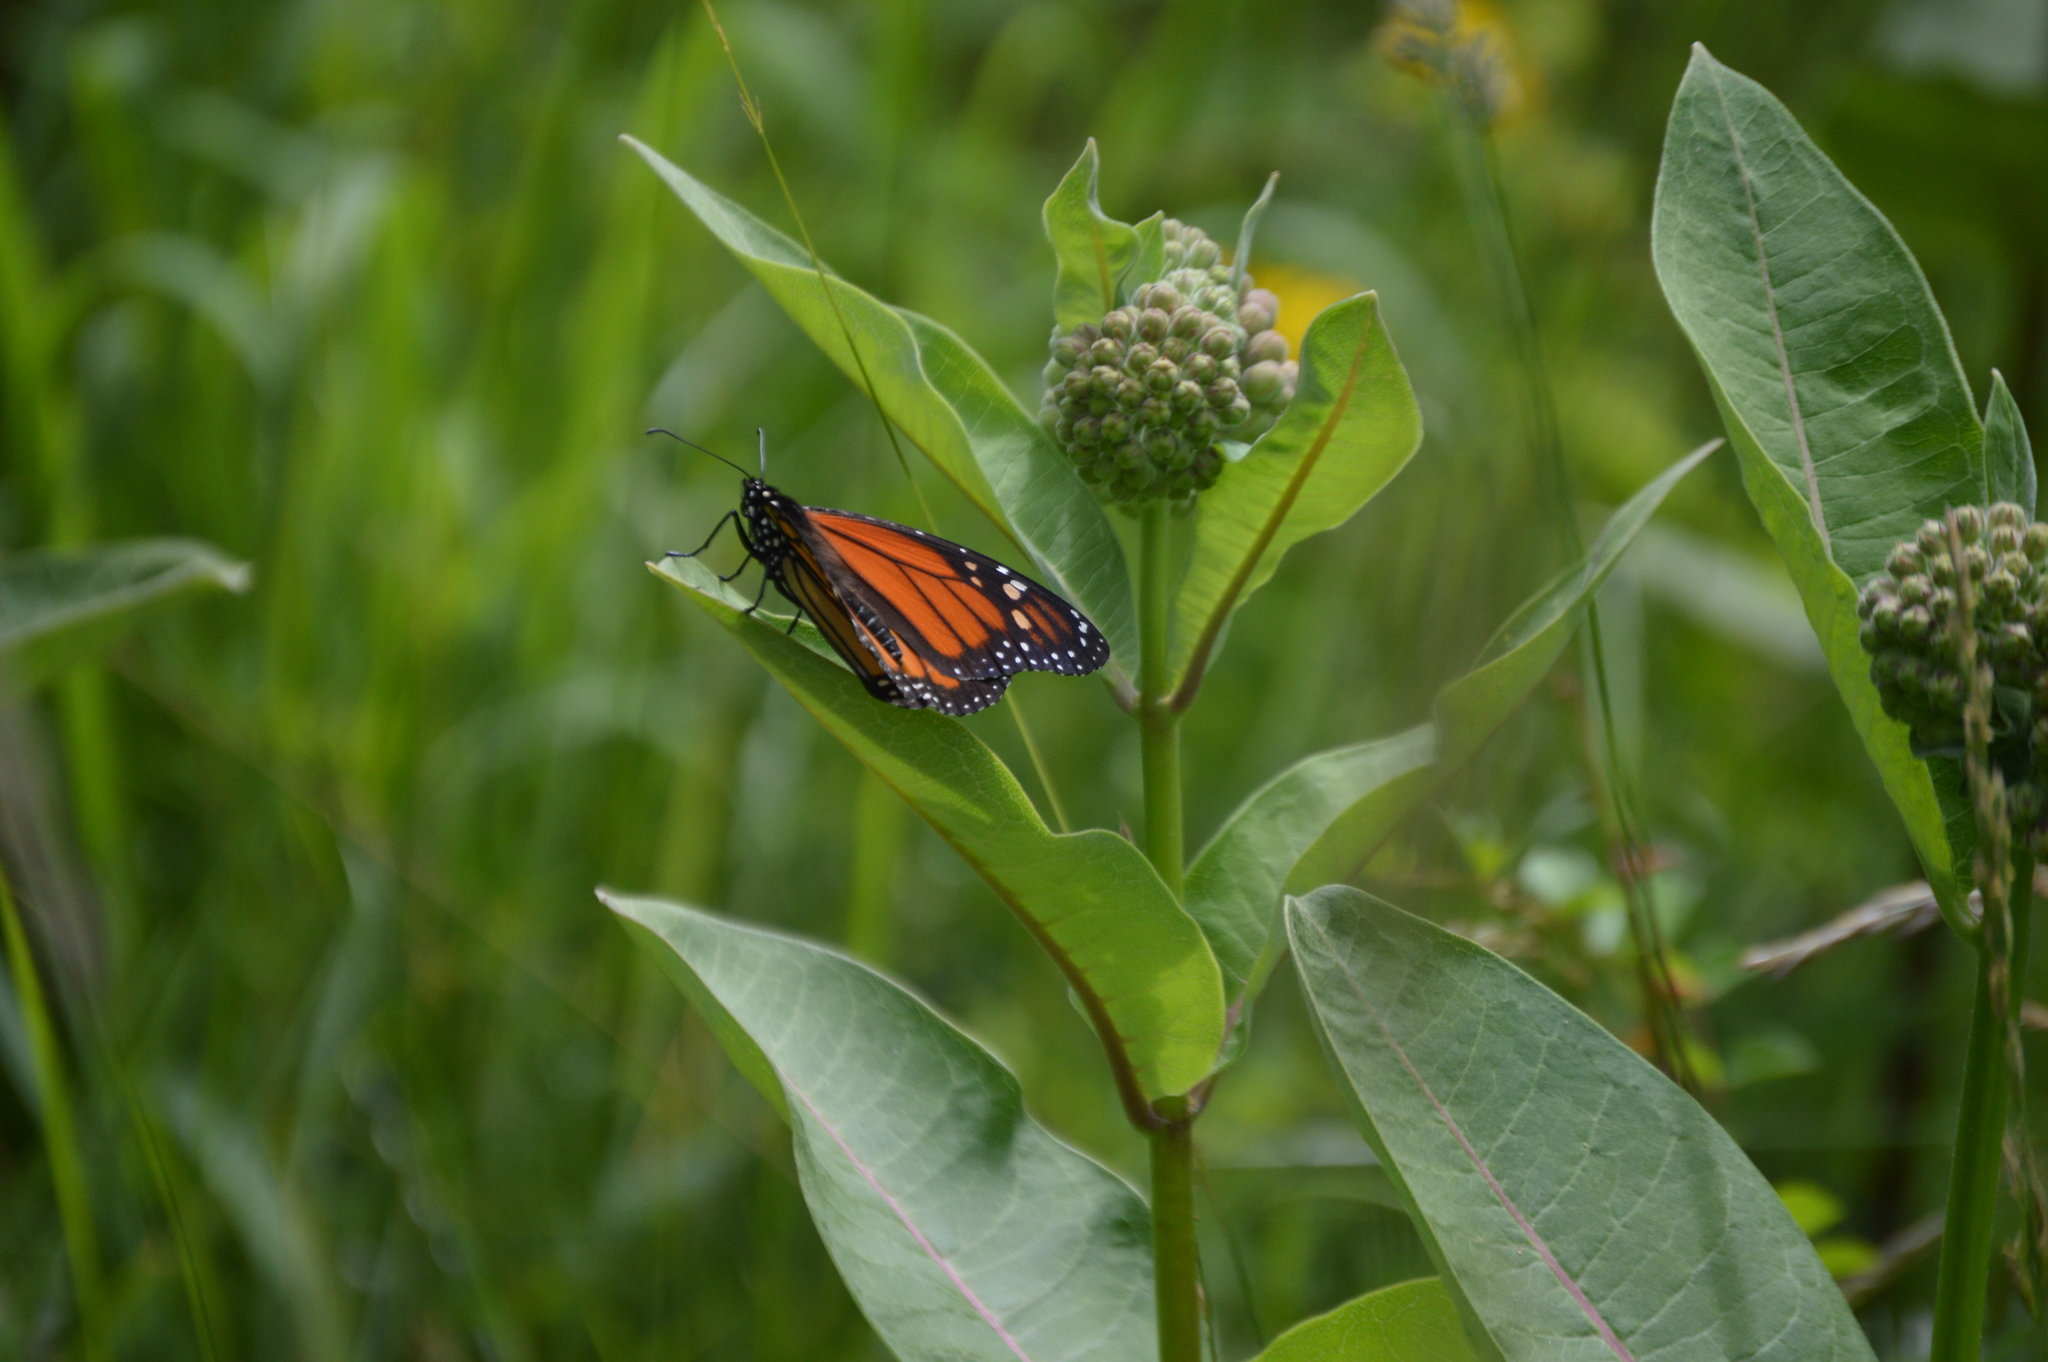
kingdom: Animalia
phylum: Arthropoda
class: Insecta
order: Lepidoptera
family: Nymphalidae
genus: Danaus
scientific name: Danaus plexippus
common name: Monarch
